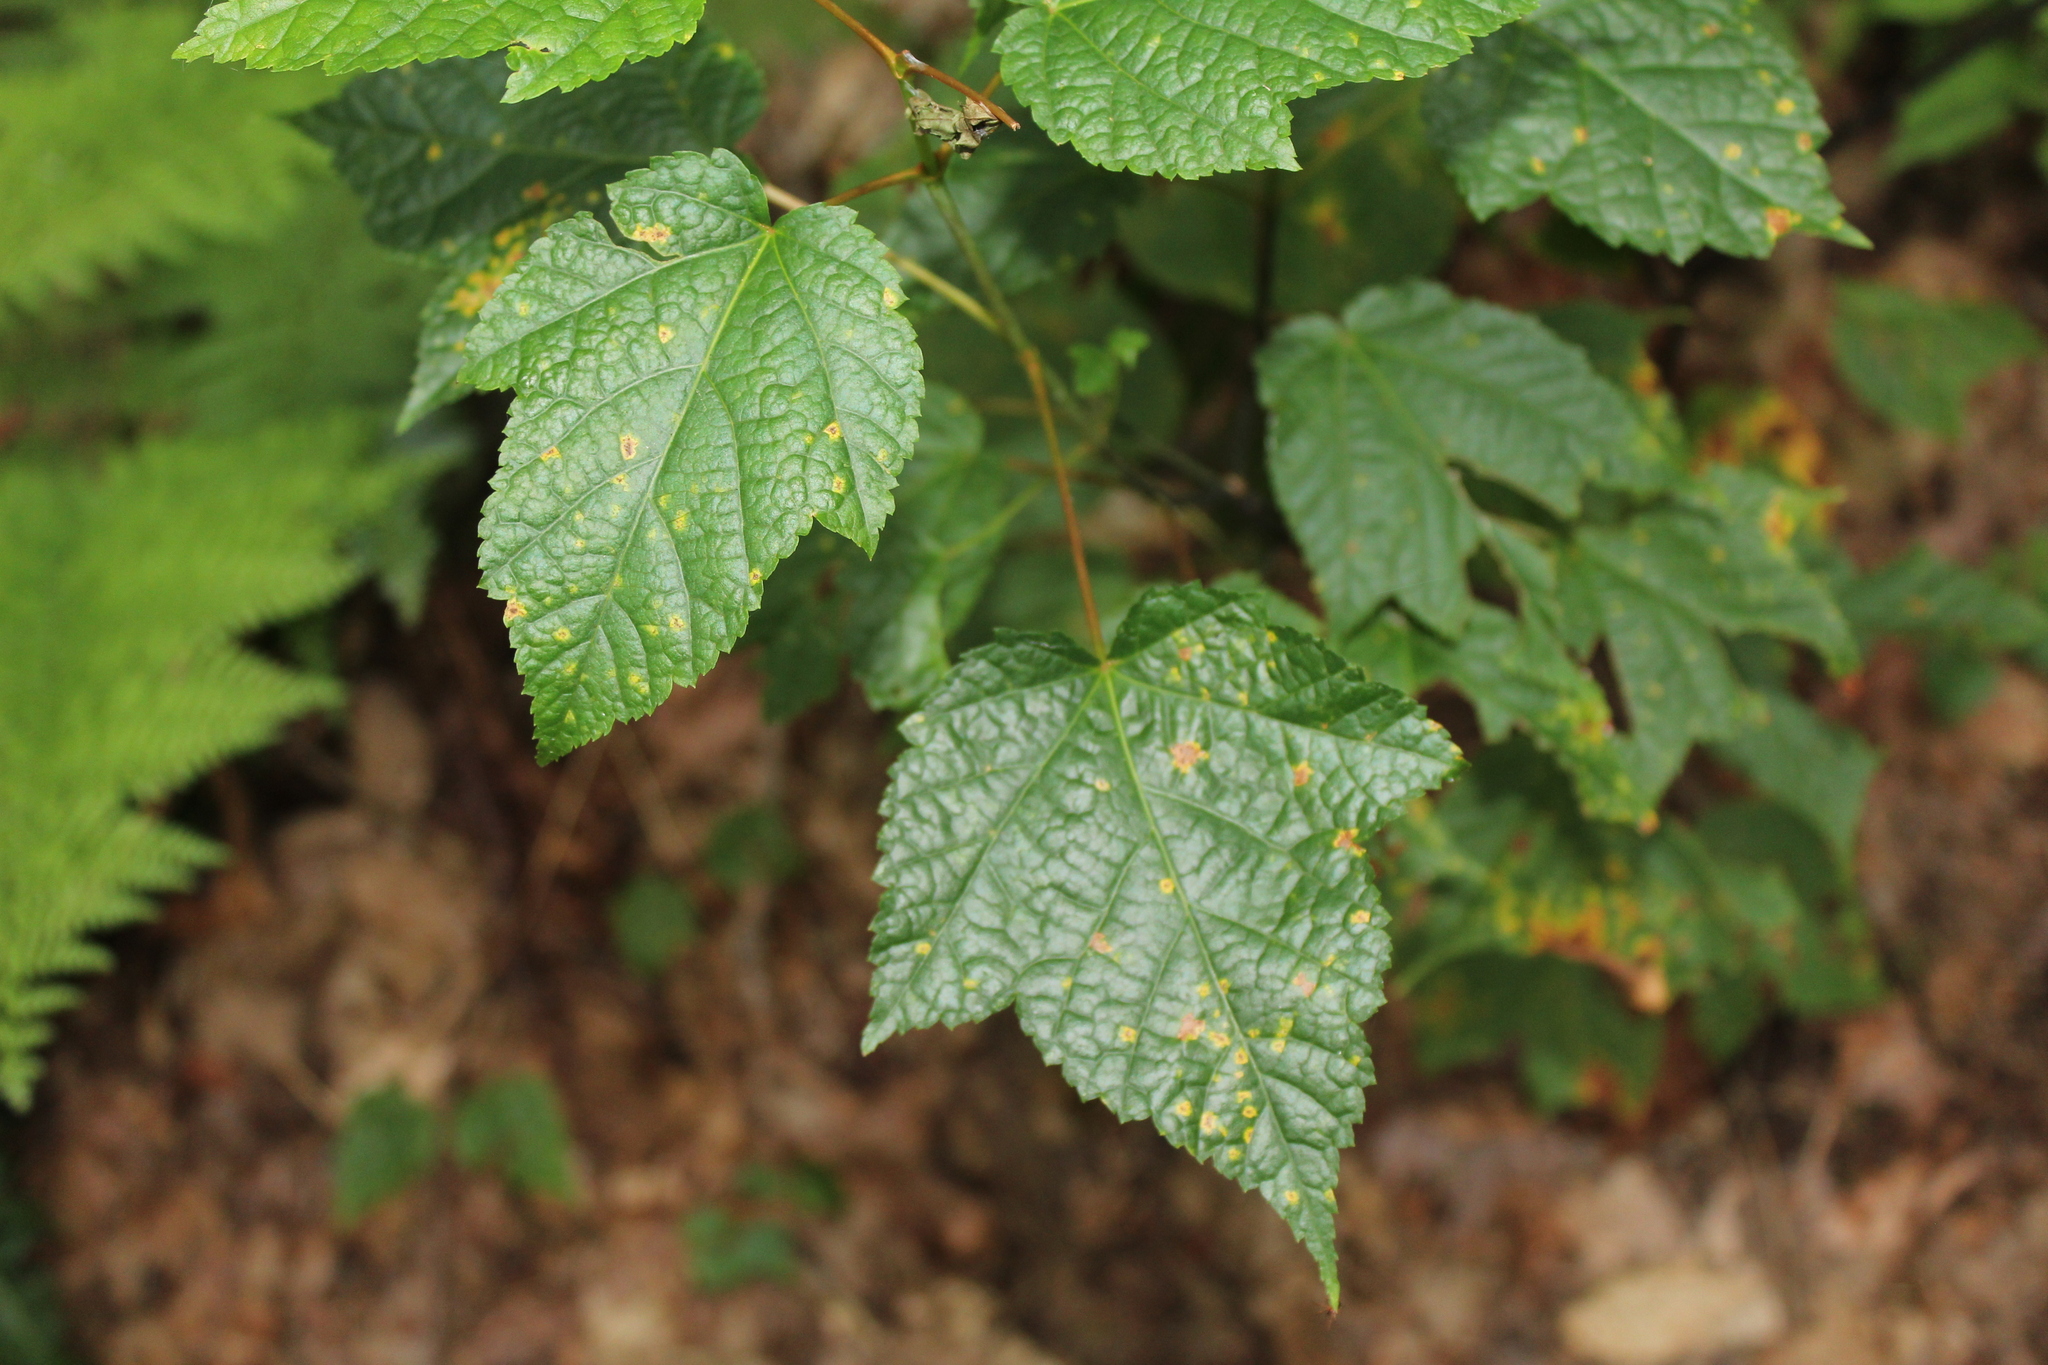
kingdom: Plantae
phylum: Tracheophyta
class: Magnoliopsida
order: Sapindales
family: Sapindaceae
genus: Acer
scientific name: Acer spicatum
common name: Mountain maple
